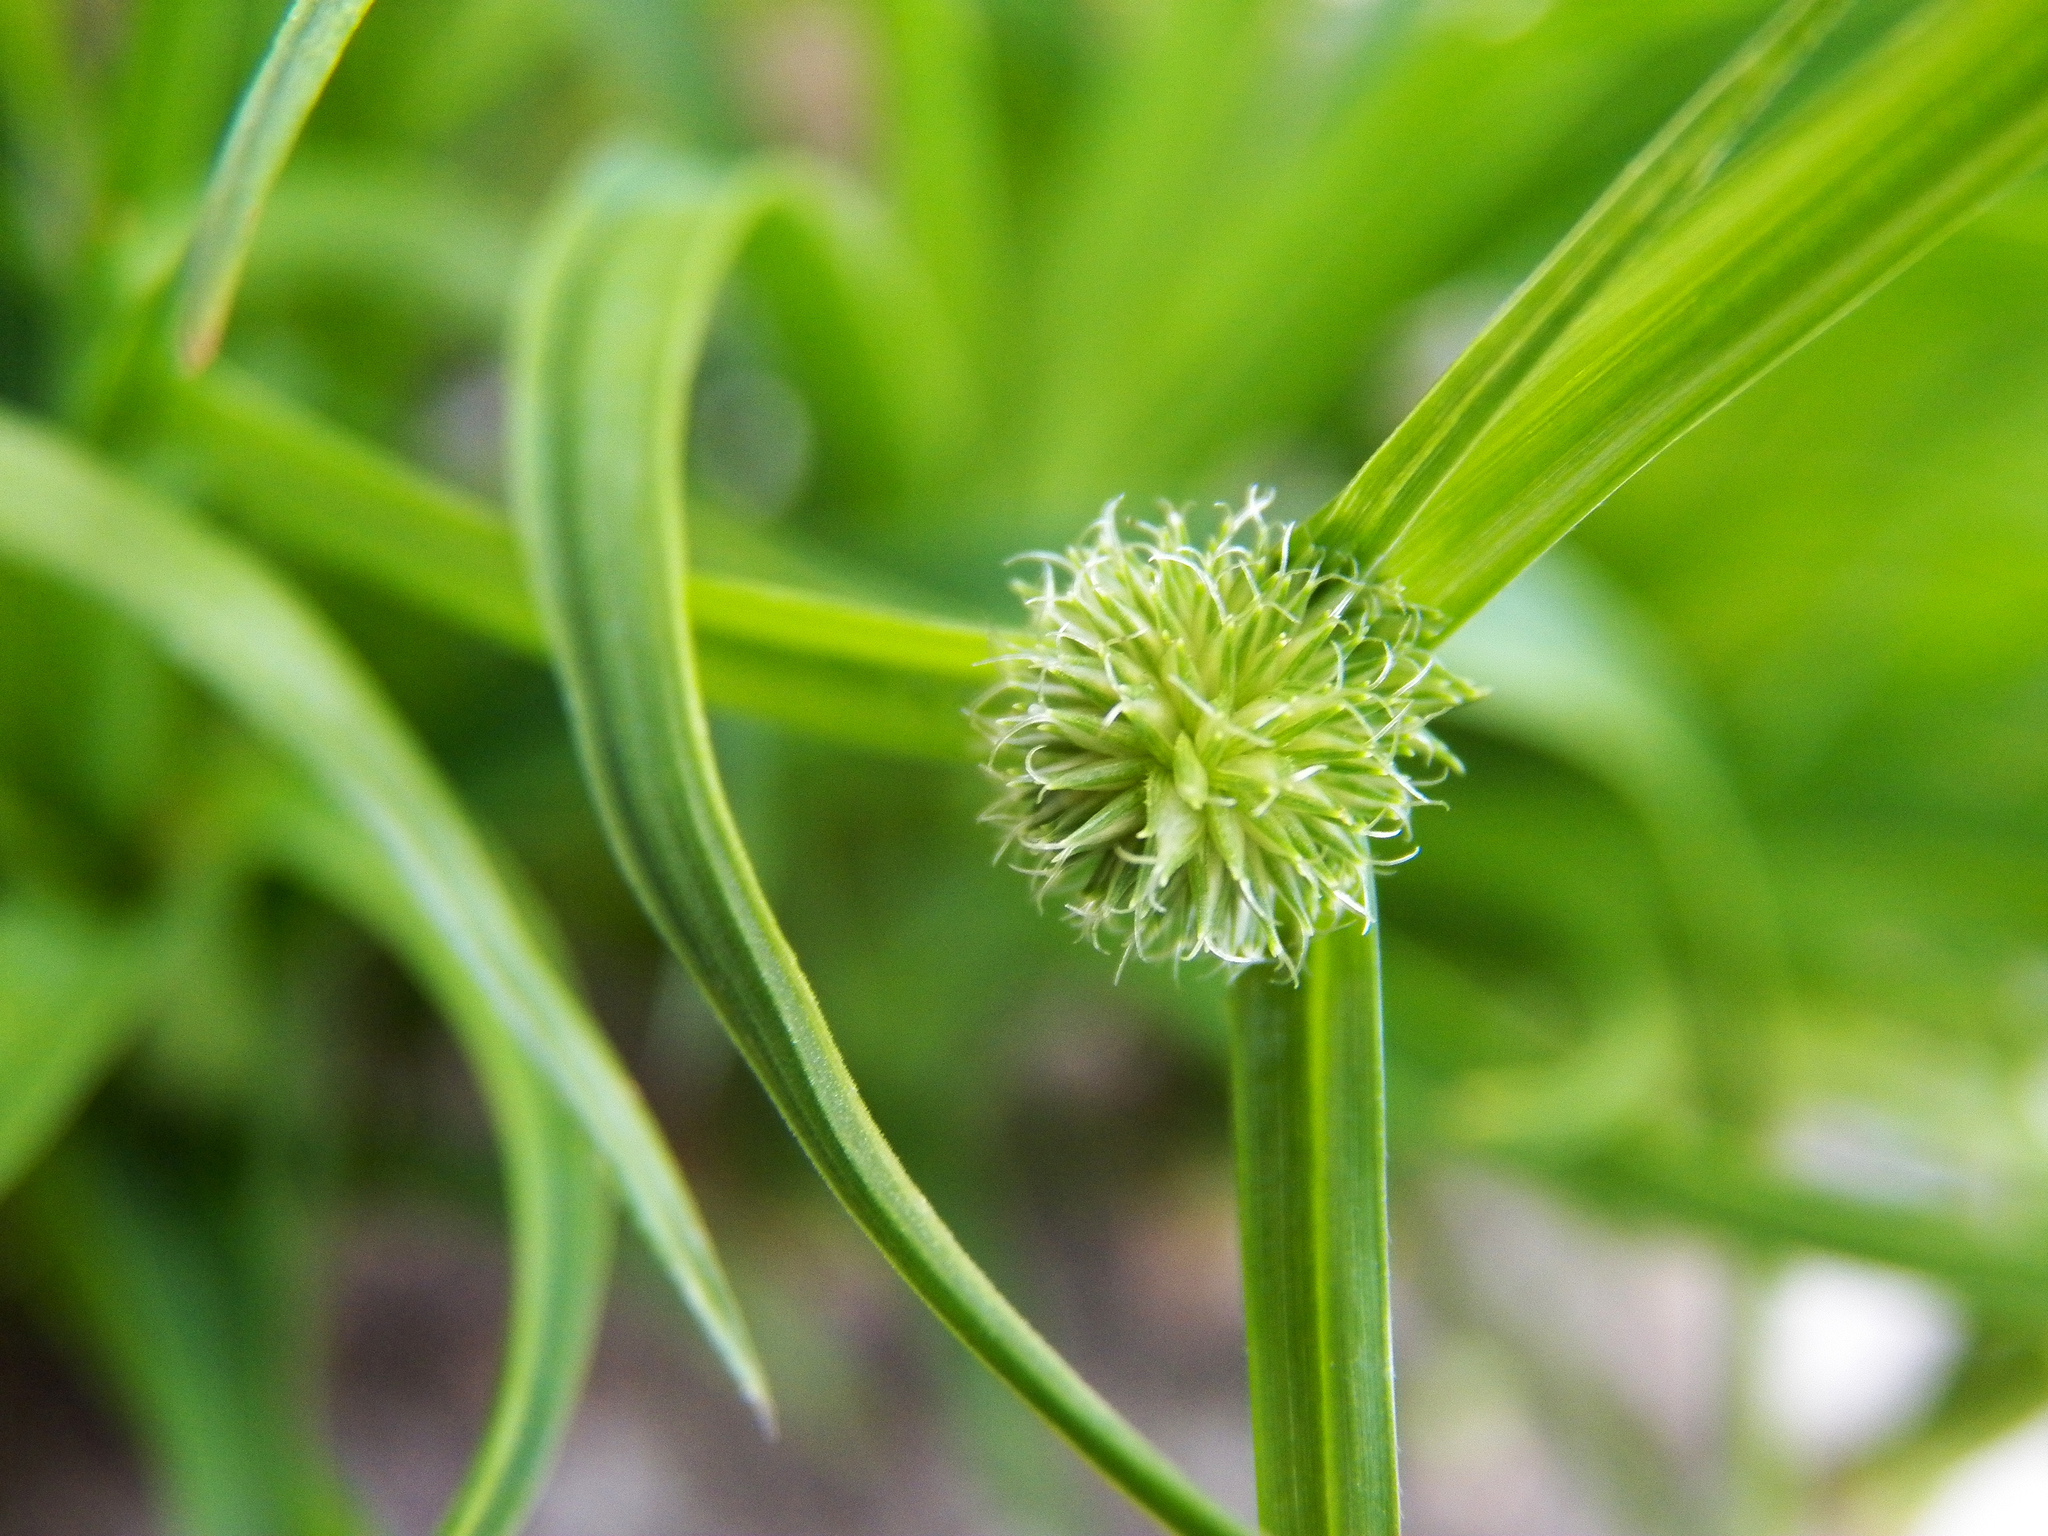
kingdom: Plantae
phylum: Tracheophyta
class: Liliopsida
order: Poales
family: Cyperaceae
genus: Cyperus
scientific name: Cyperus brevifolius
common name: Globe kyllinga
